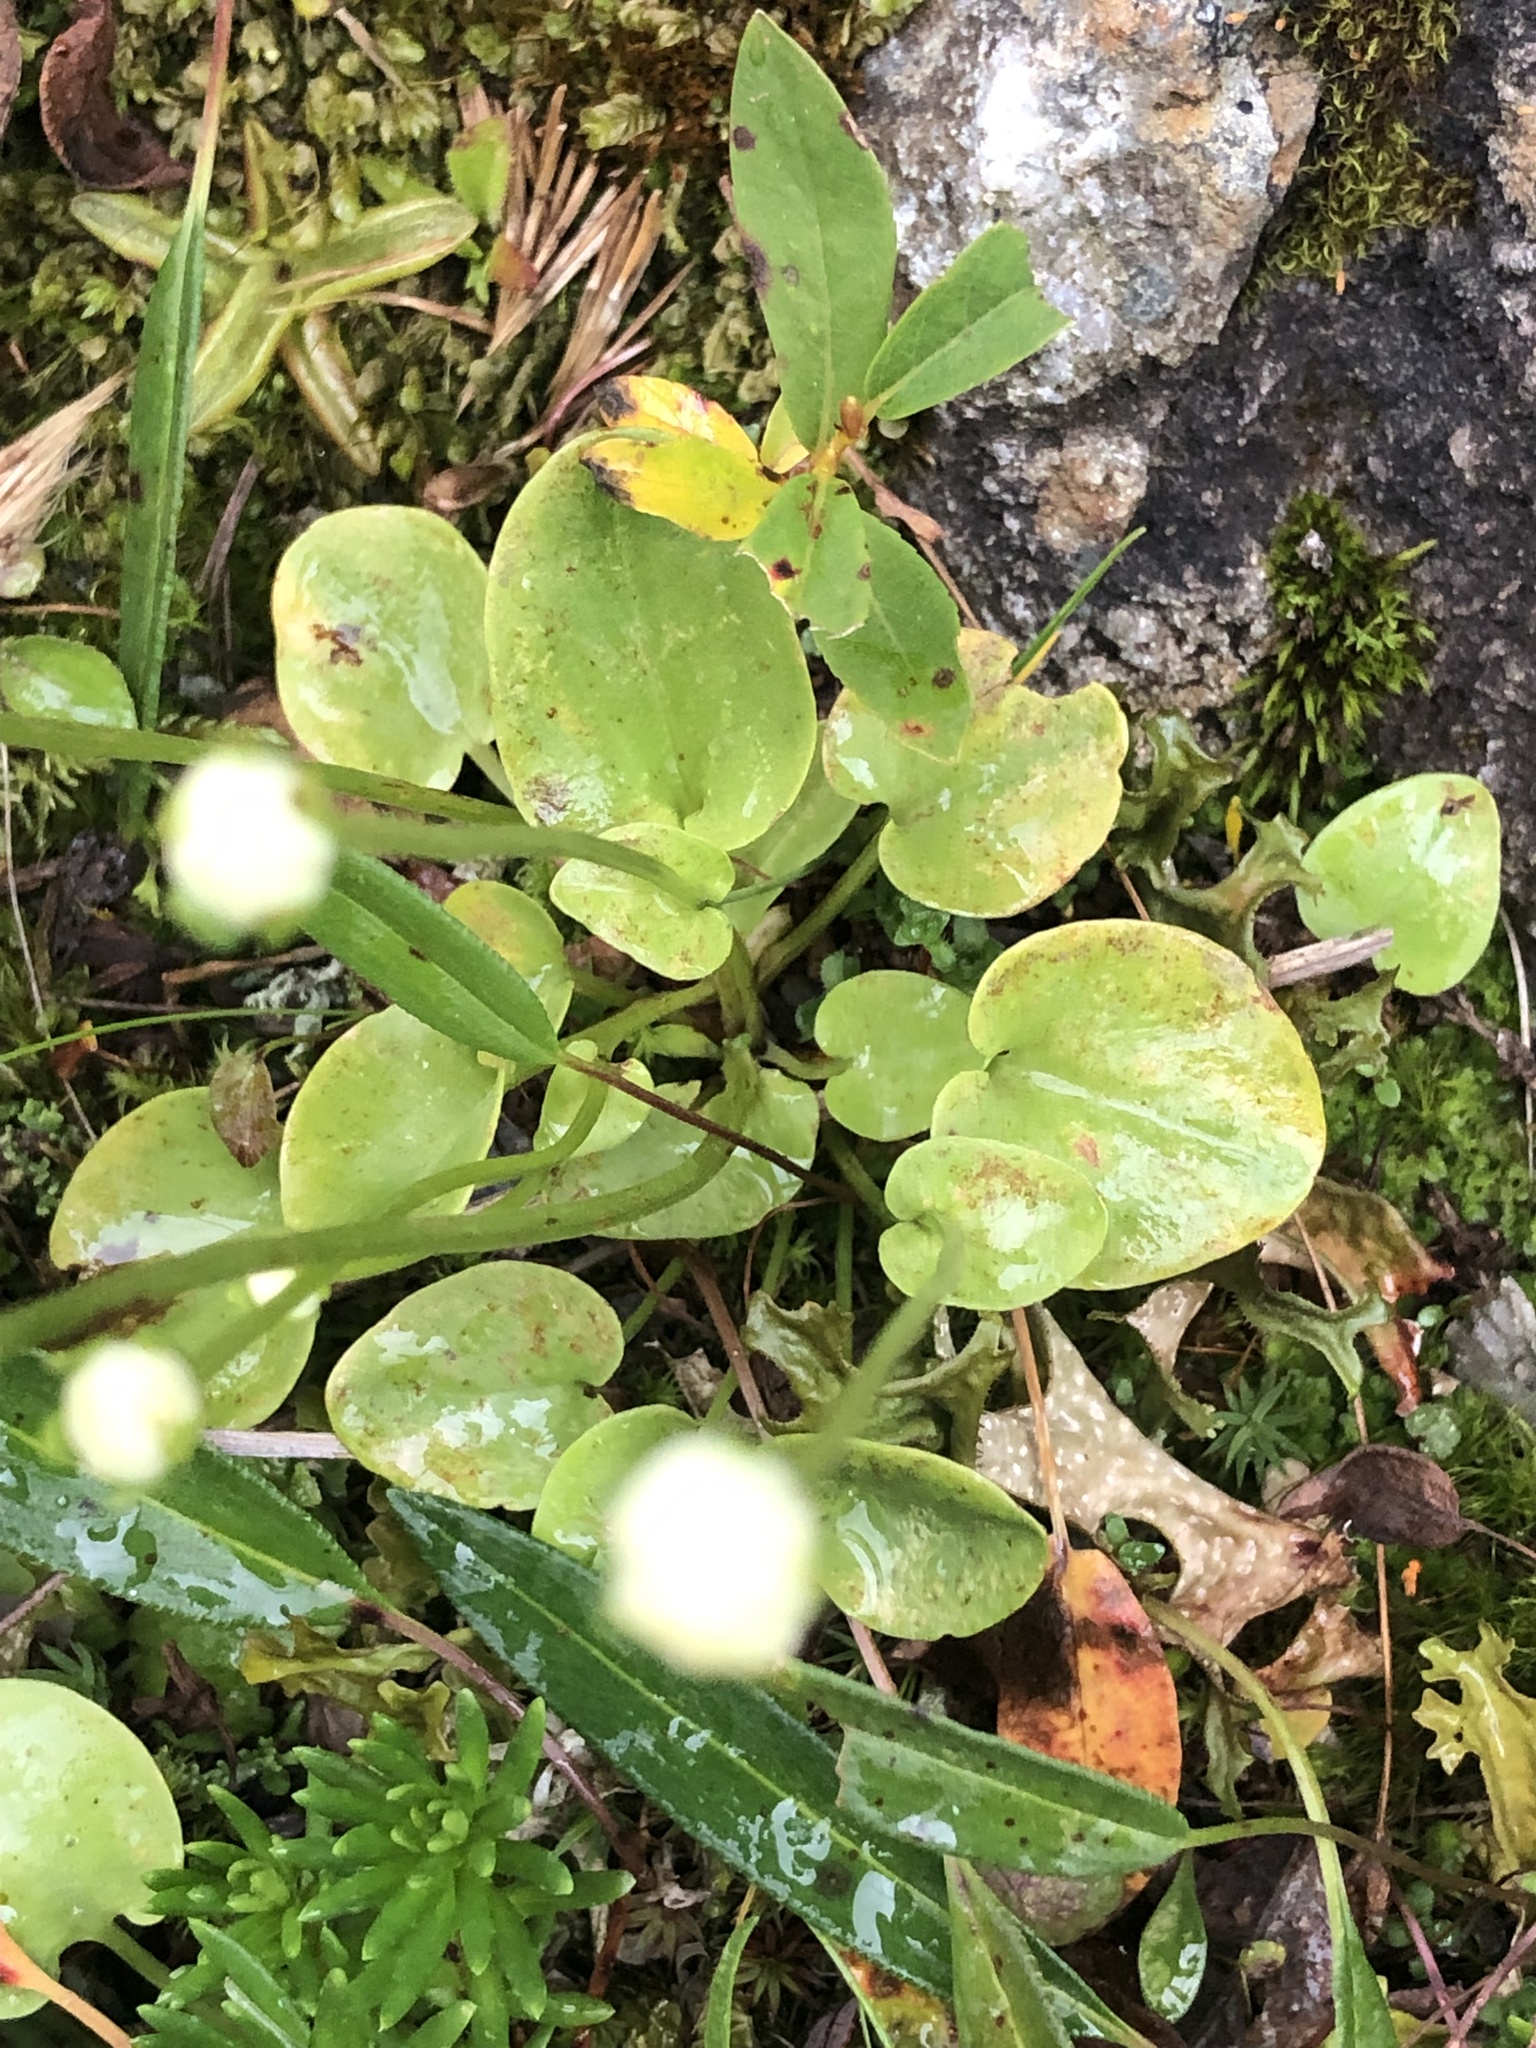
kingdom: Plantae
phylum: Tracheophyta
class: Magnoliopsida
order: Celastrales
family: Parnassiaceae
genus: Parnassia
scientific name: Parnassia palustris
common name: Grass-of-parnassus
